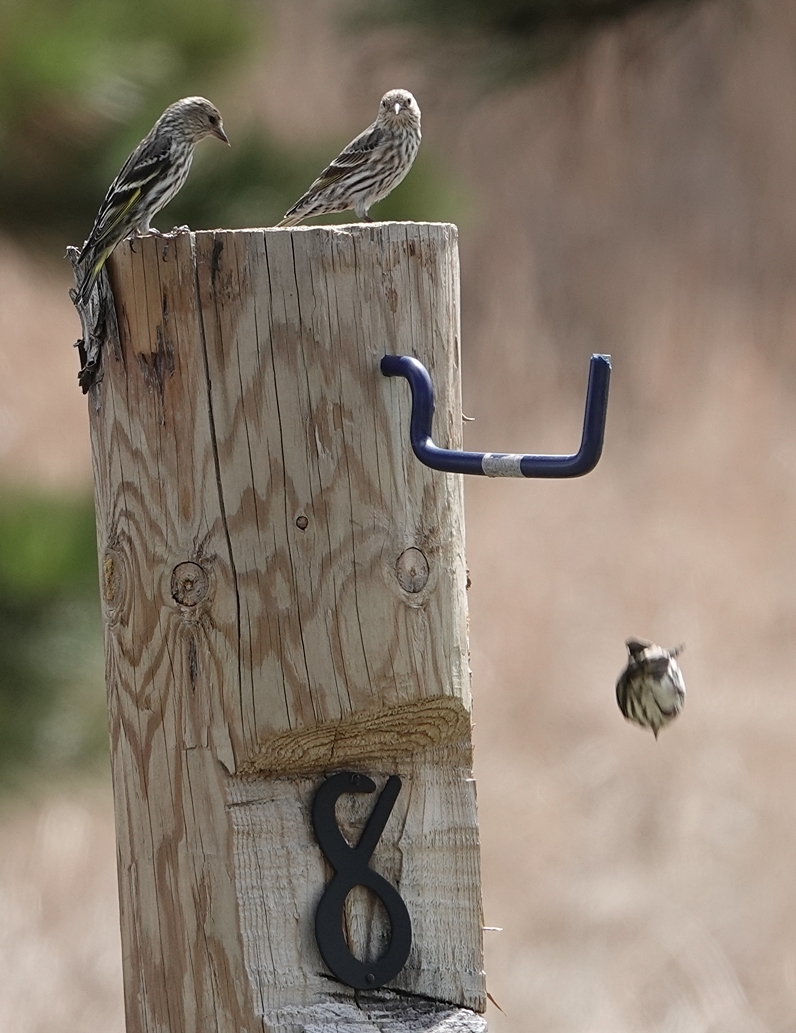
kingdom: Animalia
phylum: Chordata
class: Aves
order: Passeriformes
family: Fringillidae
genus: Spinus
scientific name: Spinus pinus
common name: Pine siskin
